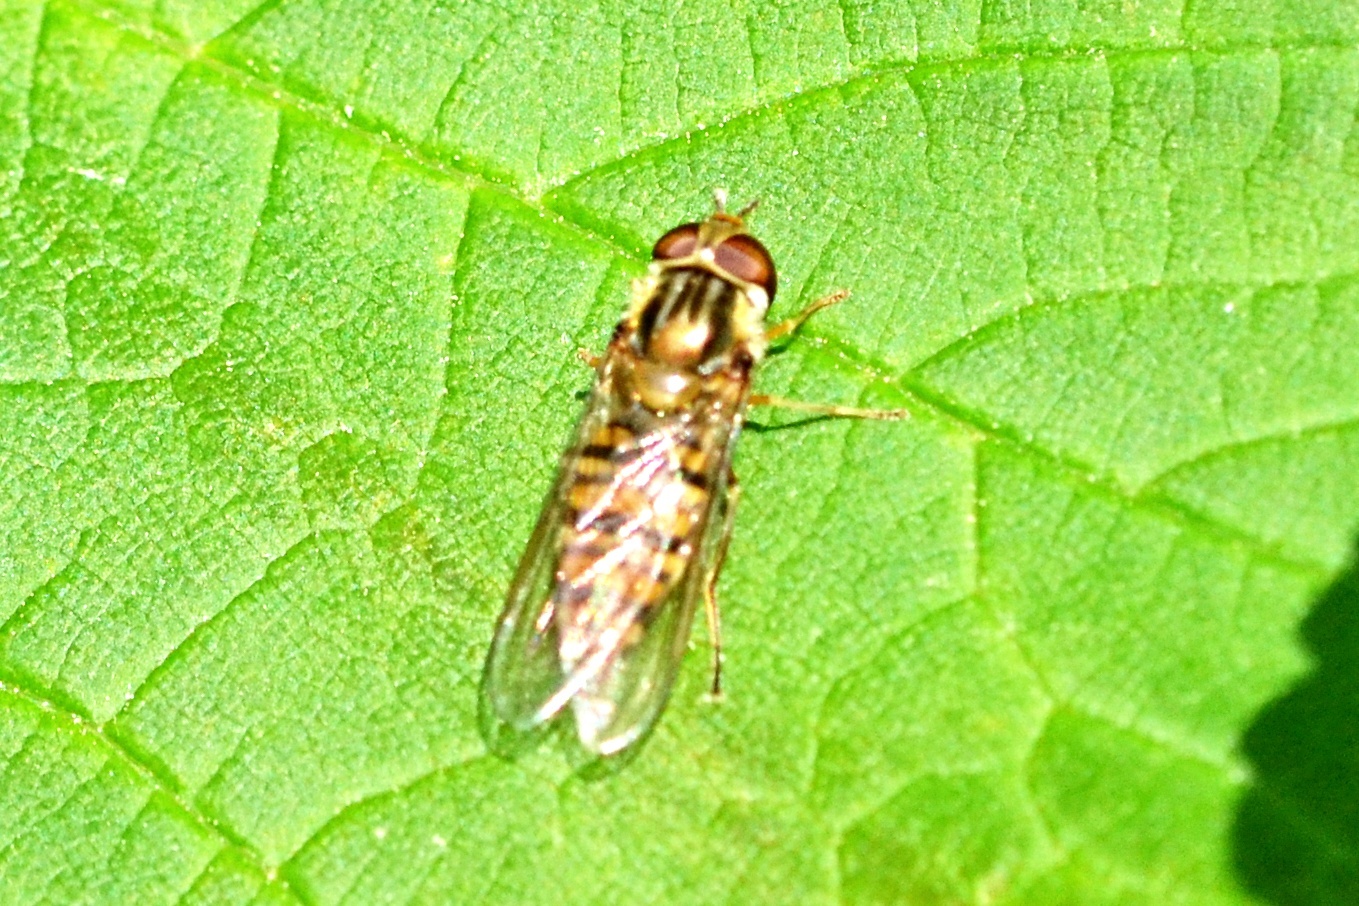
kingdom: Animalia
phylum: Arthropoda
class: Insecta
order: Diptera
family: Syrphidae
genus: Episyrphus
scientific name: Episyrphus balteatus
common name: Marmalade hoverfly
